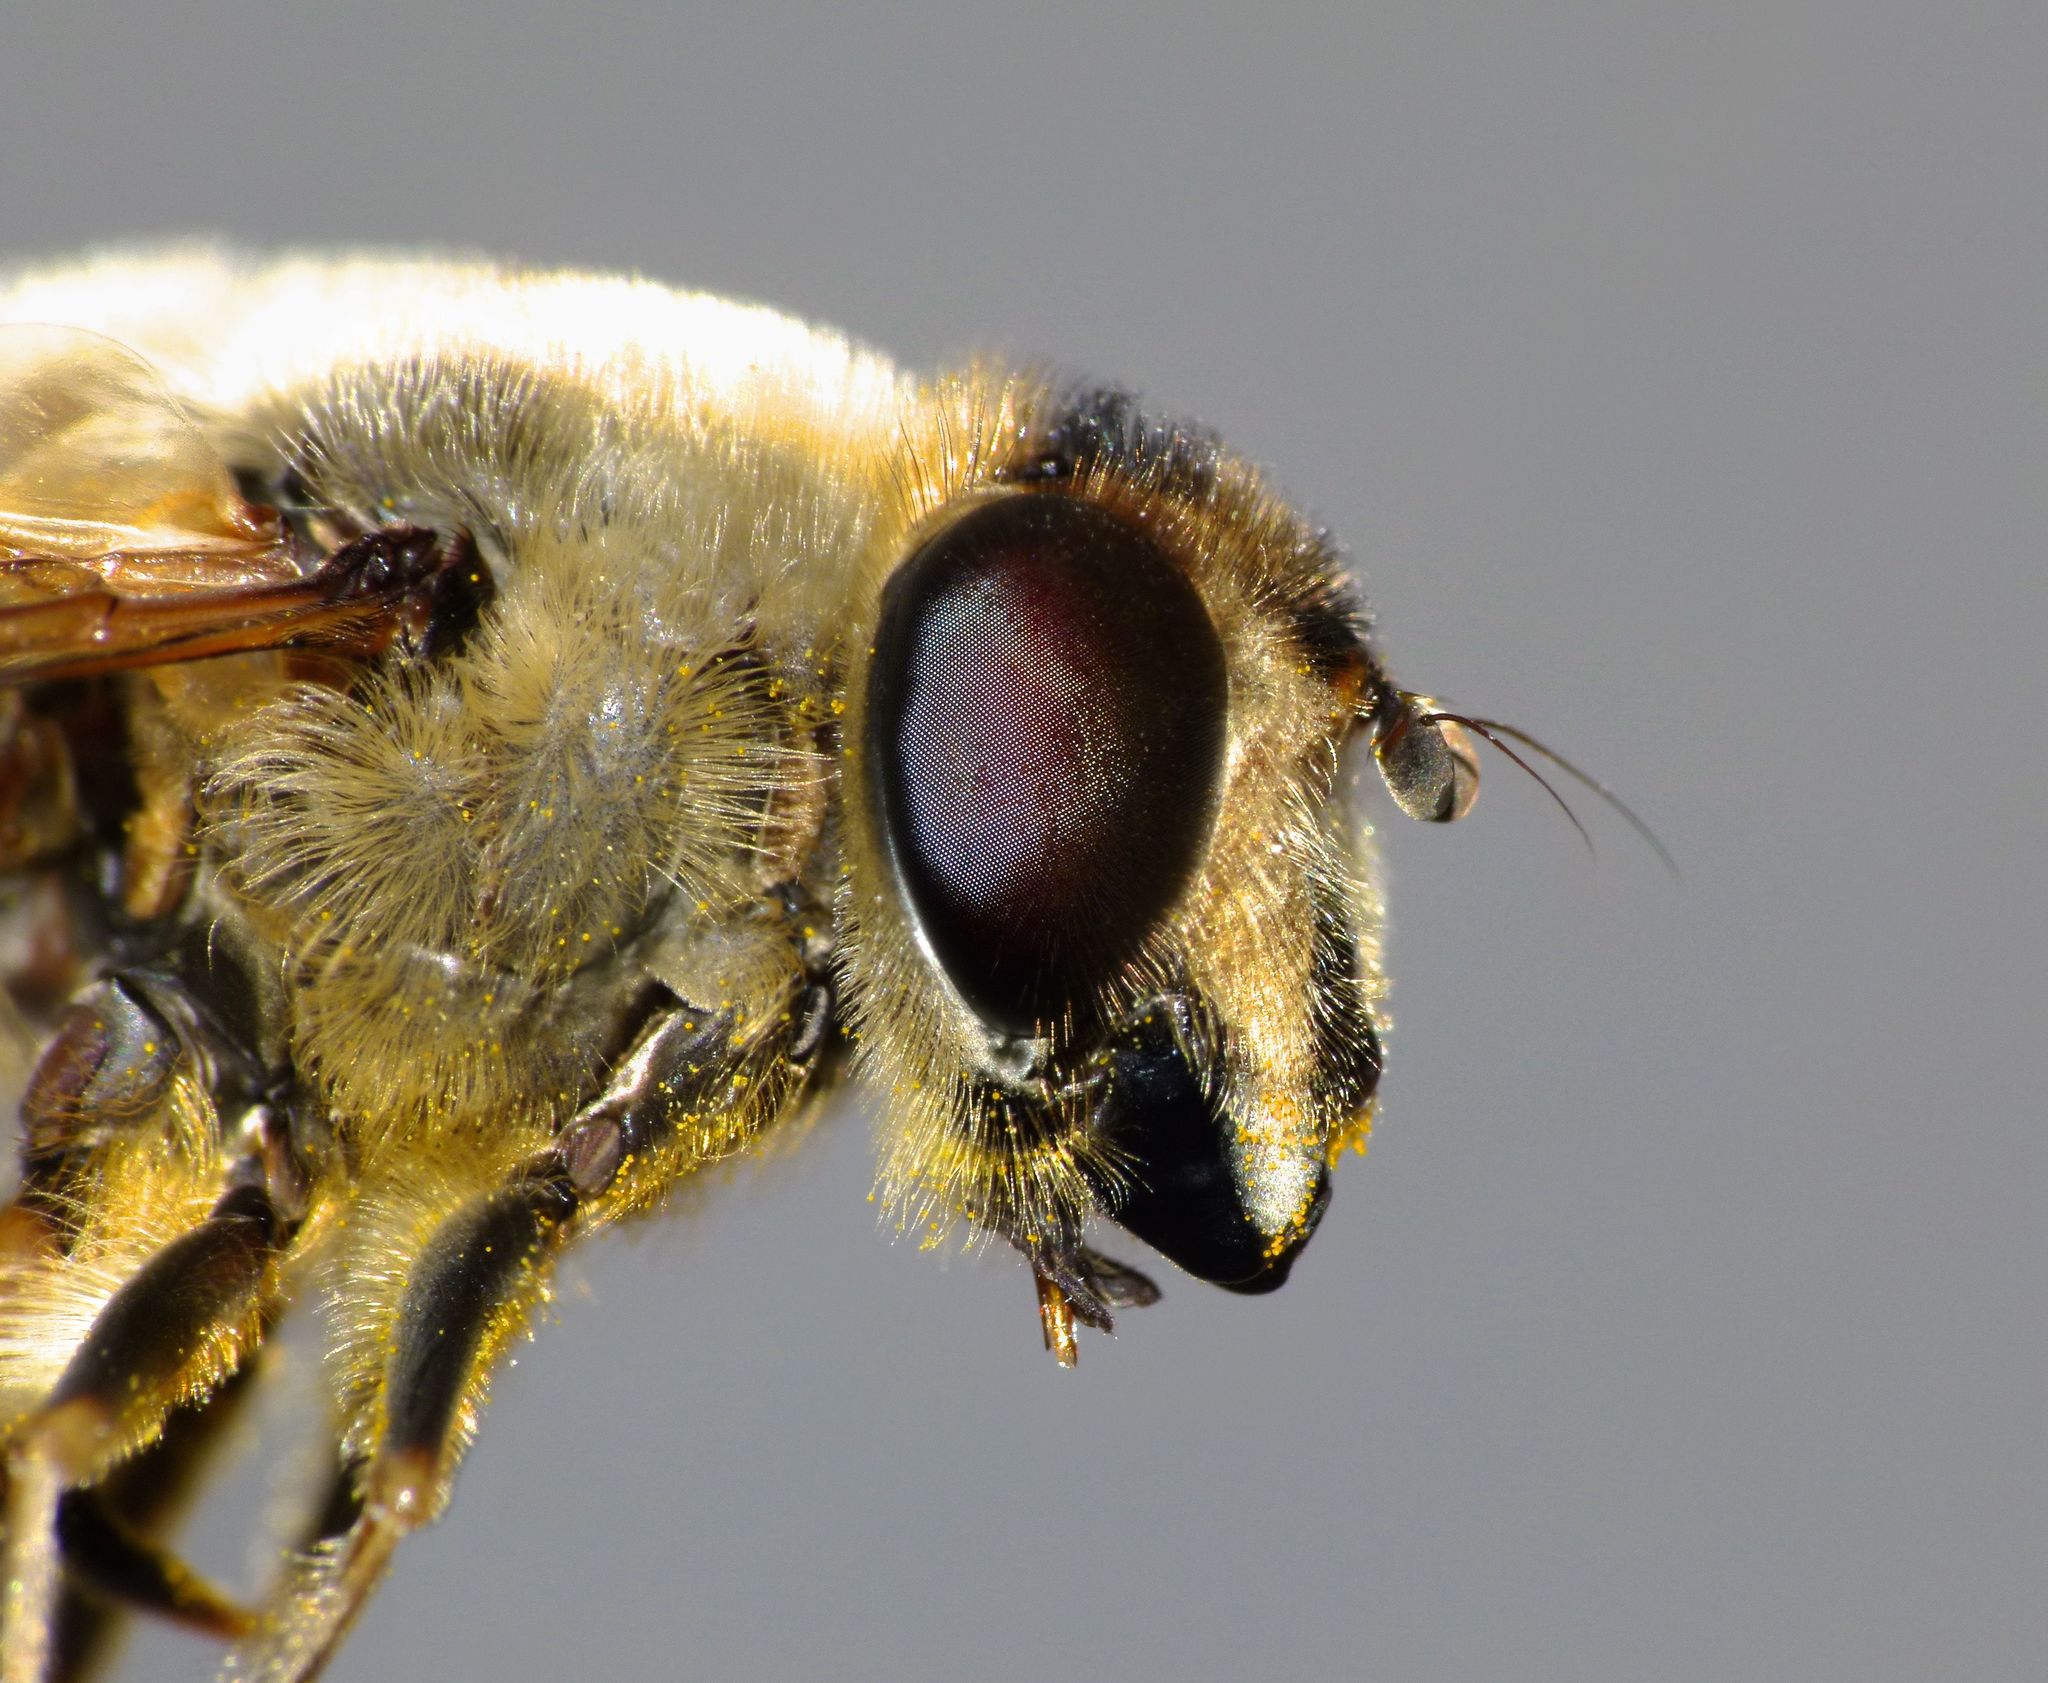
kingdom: Animalia
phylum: Arthropoda
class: Insecta
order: Diptera
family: Syrphidae
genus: Eristalis
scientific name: Eristalis tenax
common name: Drone fly
